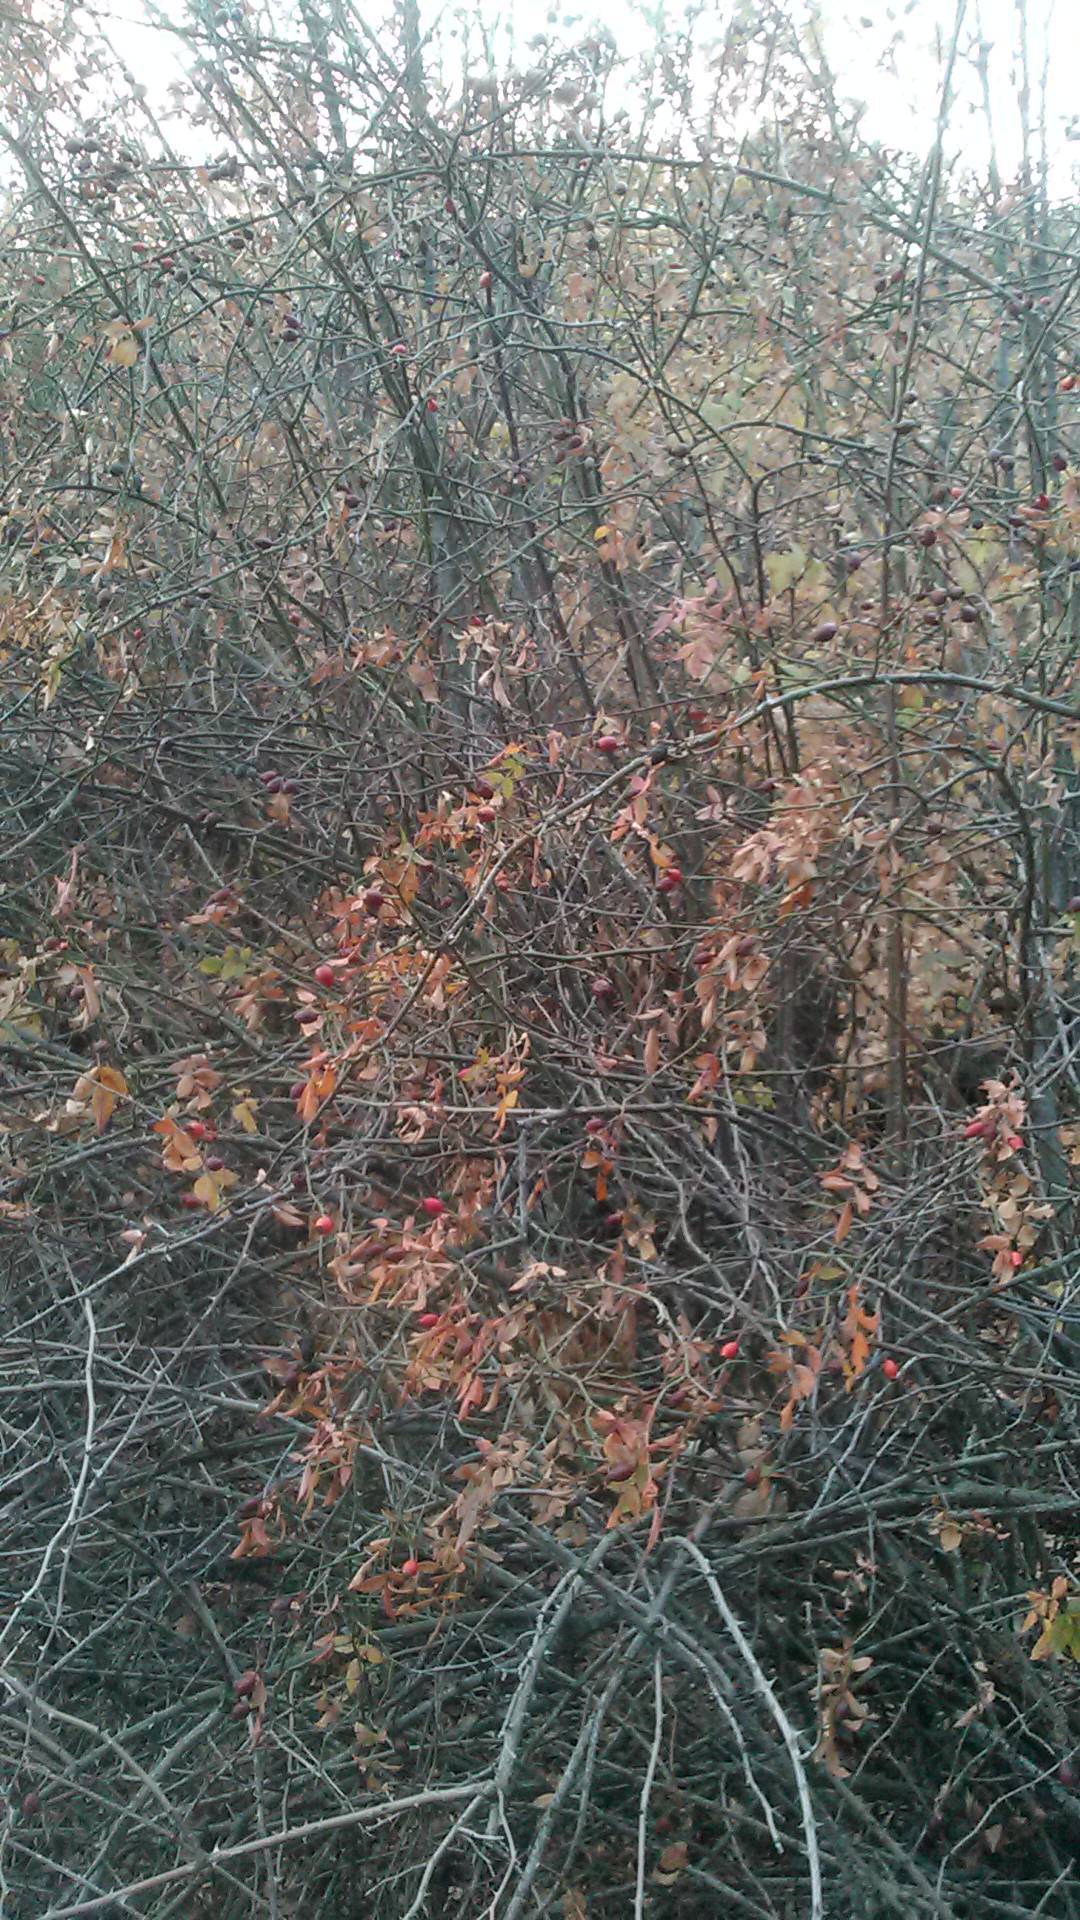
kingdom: Plantae
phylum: Tracheophyta
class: Magnoliopsida
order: Rosales
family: Rosaceae
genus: Rosa
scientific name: Rosa
